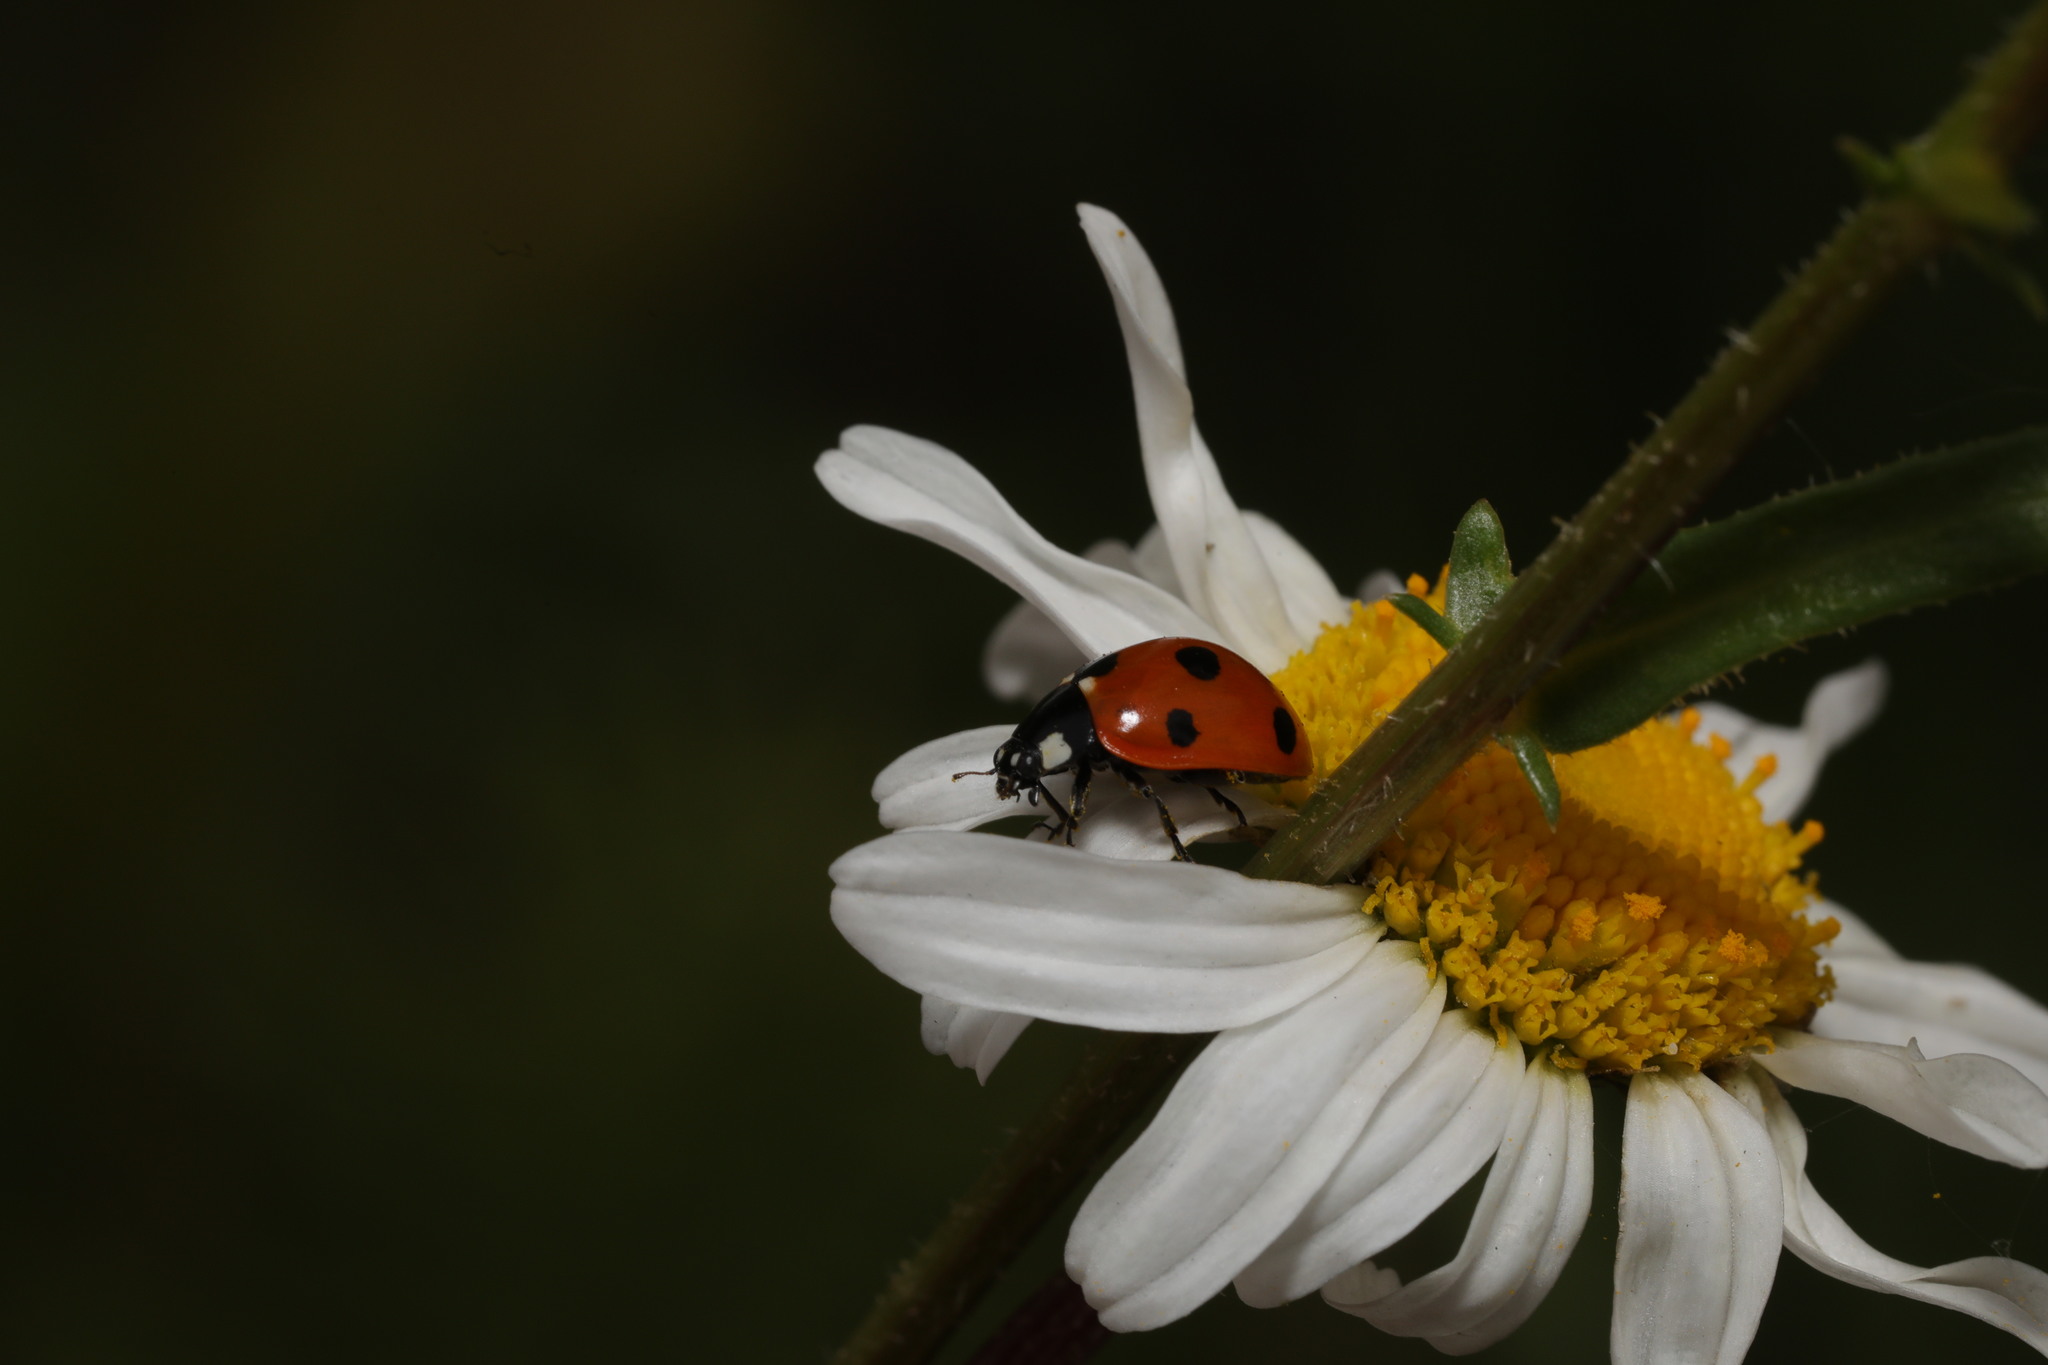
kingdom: Animalia
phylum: Arthropoda
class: Insecta
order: Coleoptera
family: Coccinellidae
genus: Coccinella
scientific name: Coccinella septempunctata
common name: Sevenspotted lady beetle
